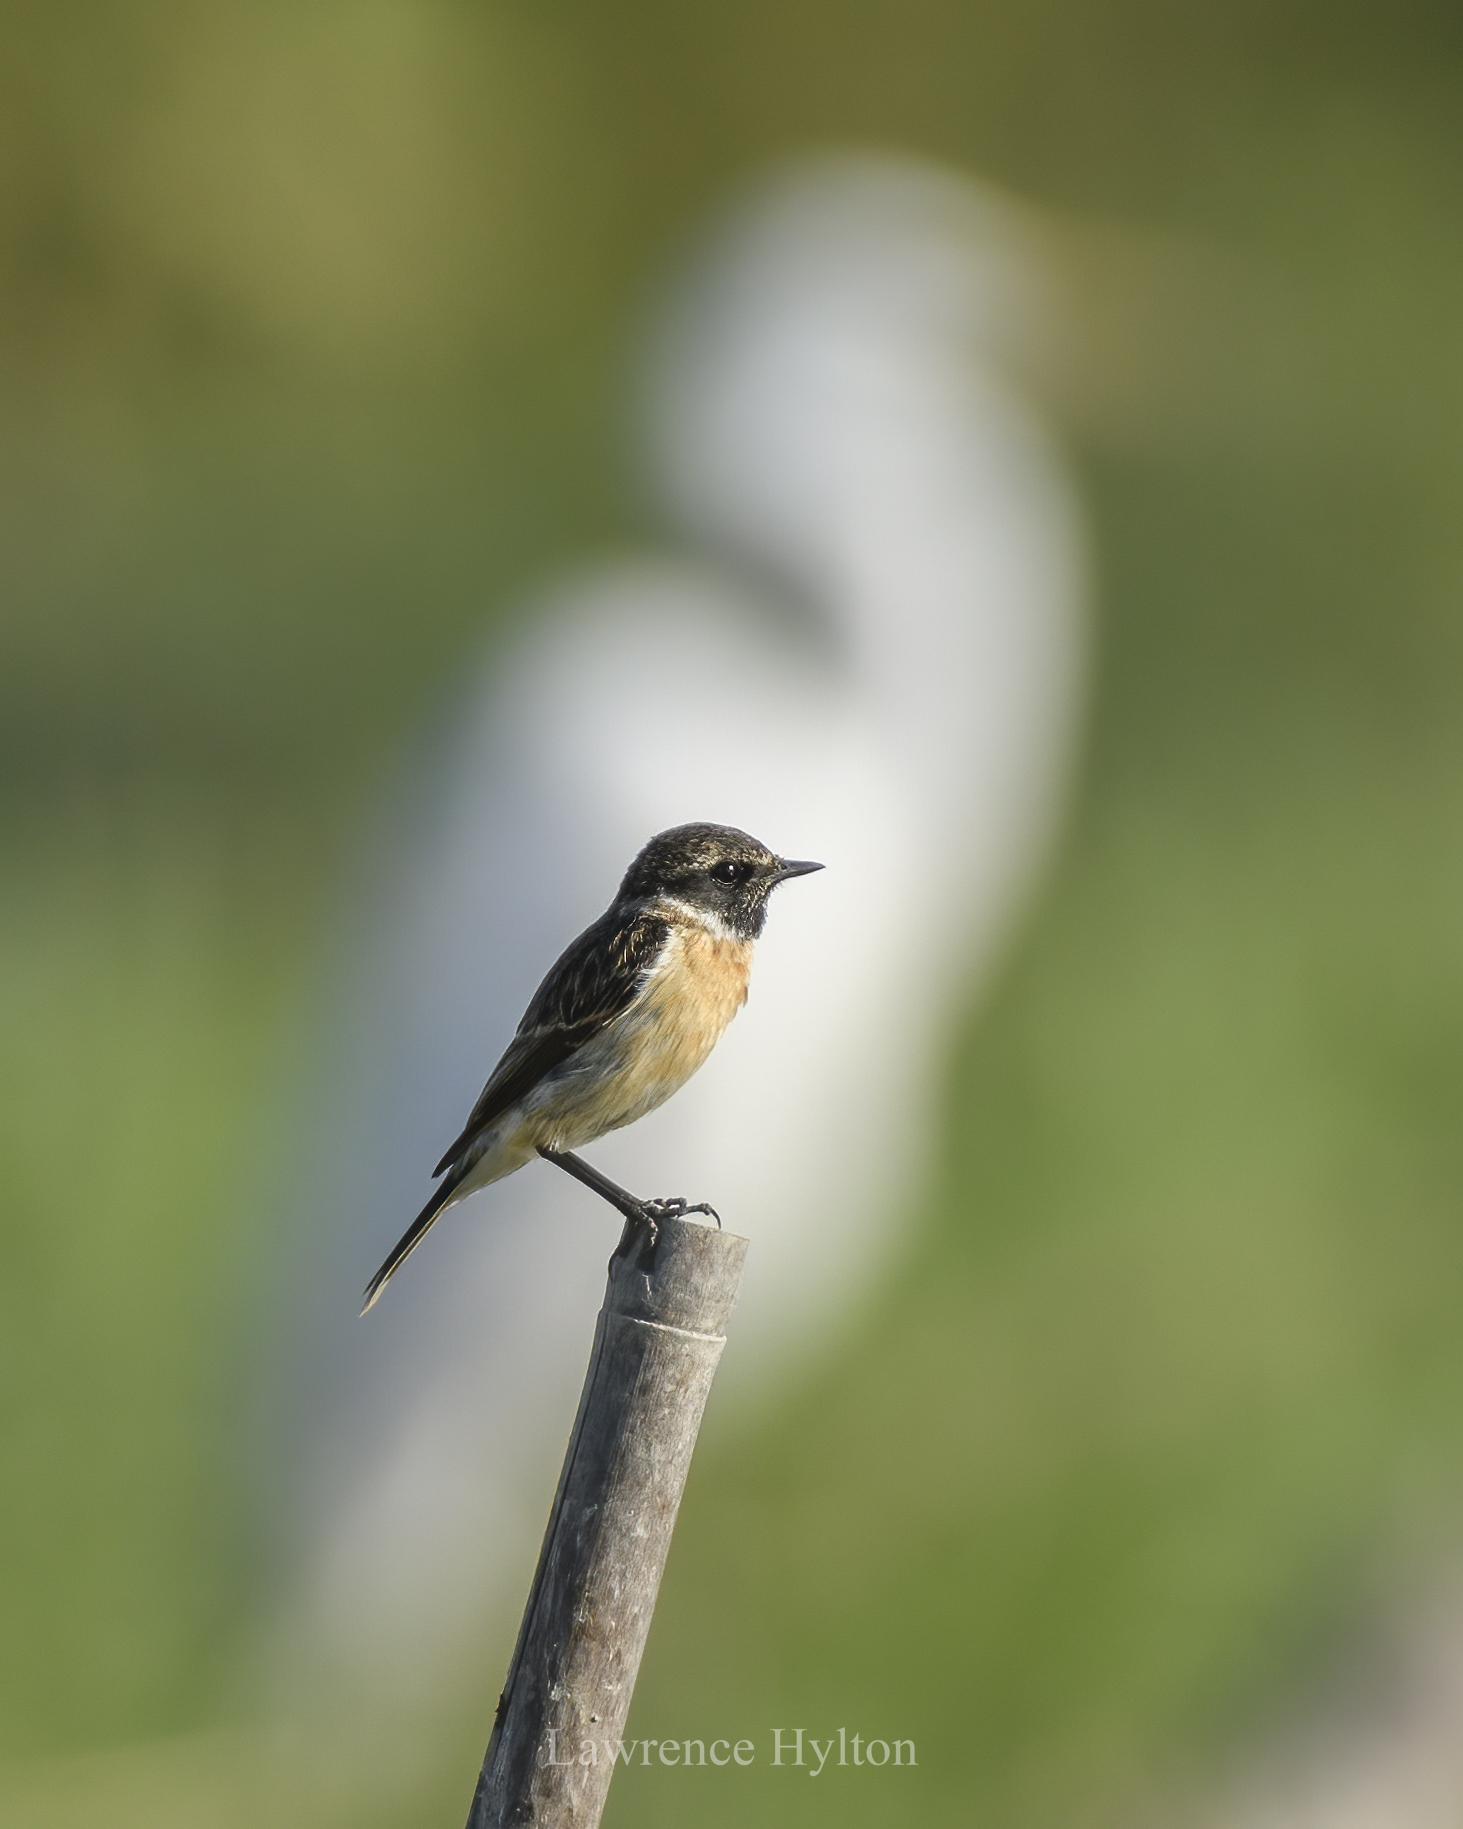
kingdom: Animalia
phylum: Chordata
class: Aves
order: Passeriformes
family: Muscicapidae
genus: Saxicola
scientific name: Saxicola stejnegeri
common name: Stejneger's stonechat
